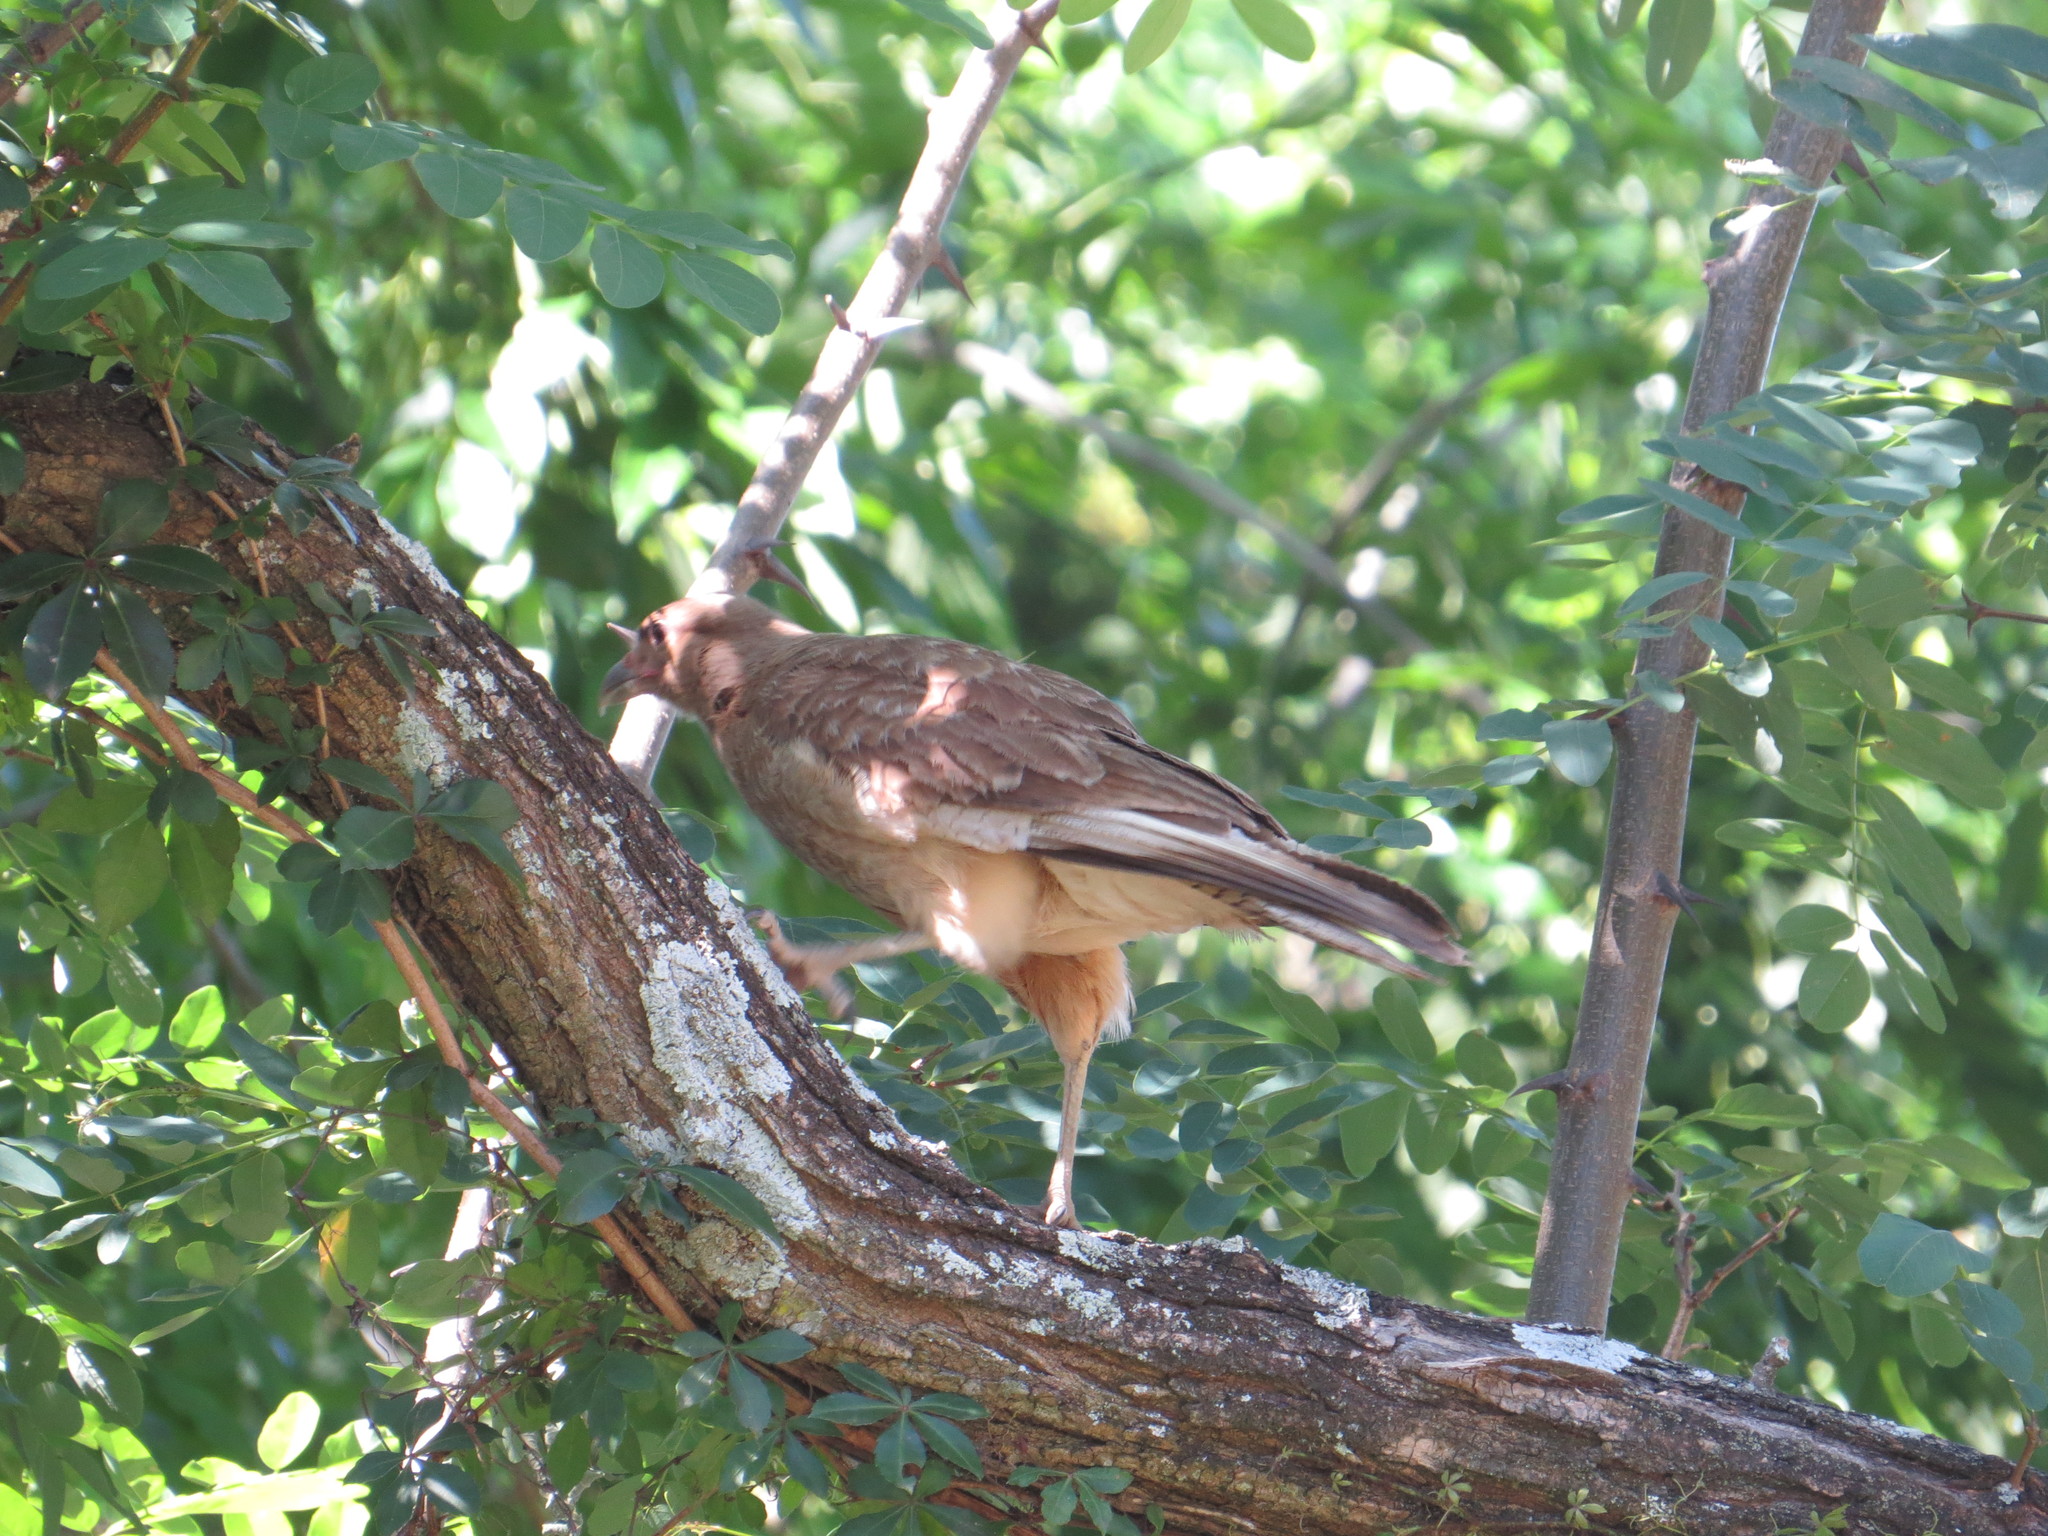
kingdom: Animalia
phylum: Chordata
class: Aves
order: Falconiformes
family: Falconidae
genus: Daptrius
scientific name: Daptrius
